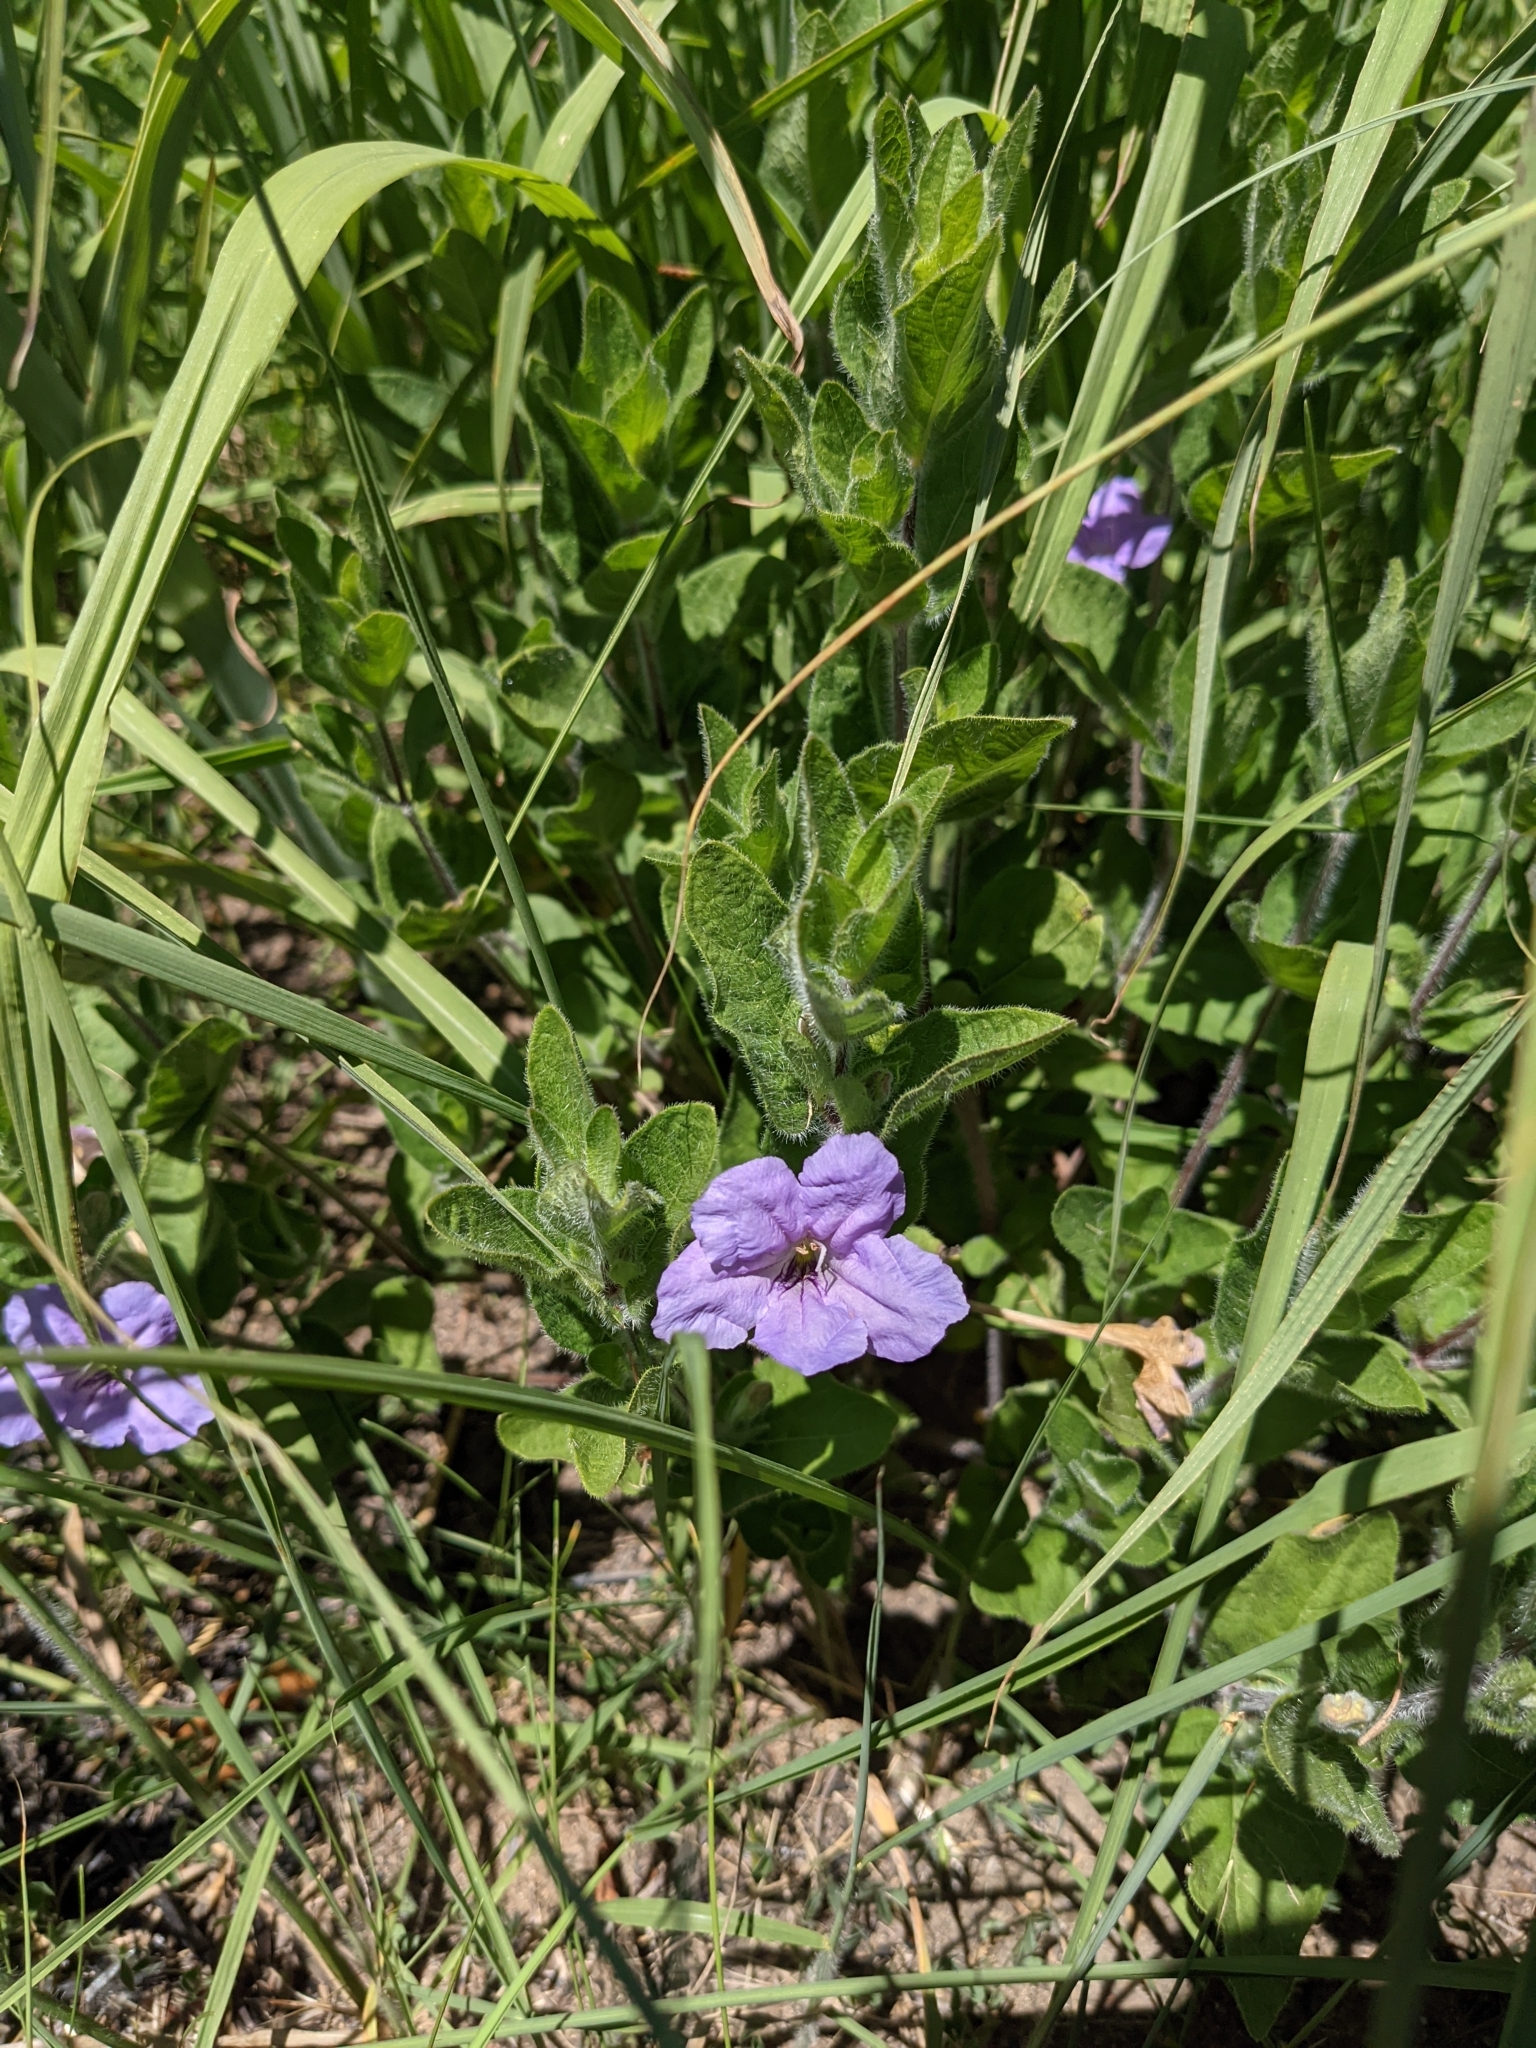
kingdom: Plantae
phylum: Tracheophyta
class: Magnoliopsida
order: Lamiales
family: Acanthaceae
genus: Ruellia
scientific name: Ruellia humilis
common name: Fringe-leaf ruellia
